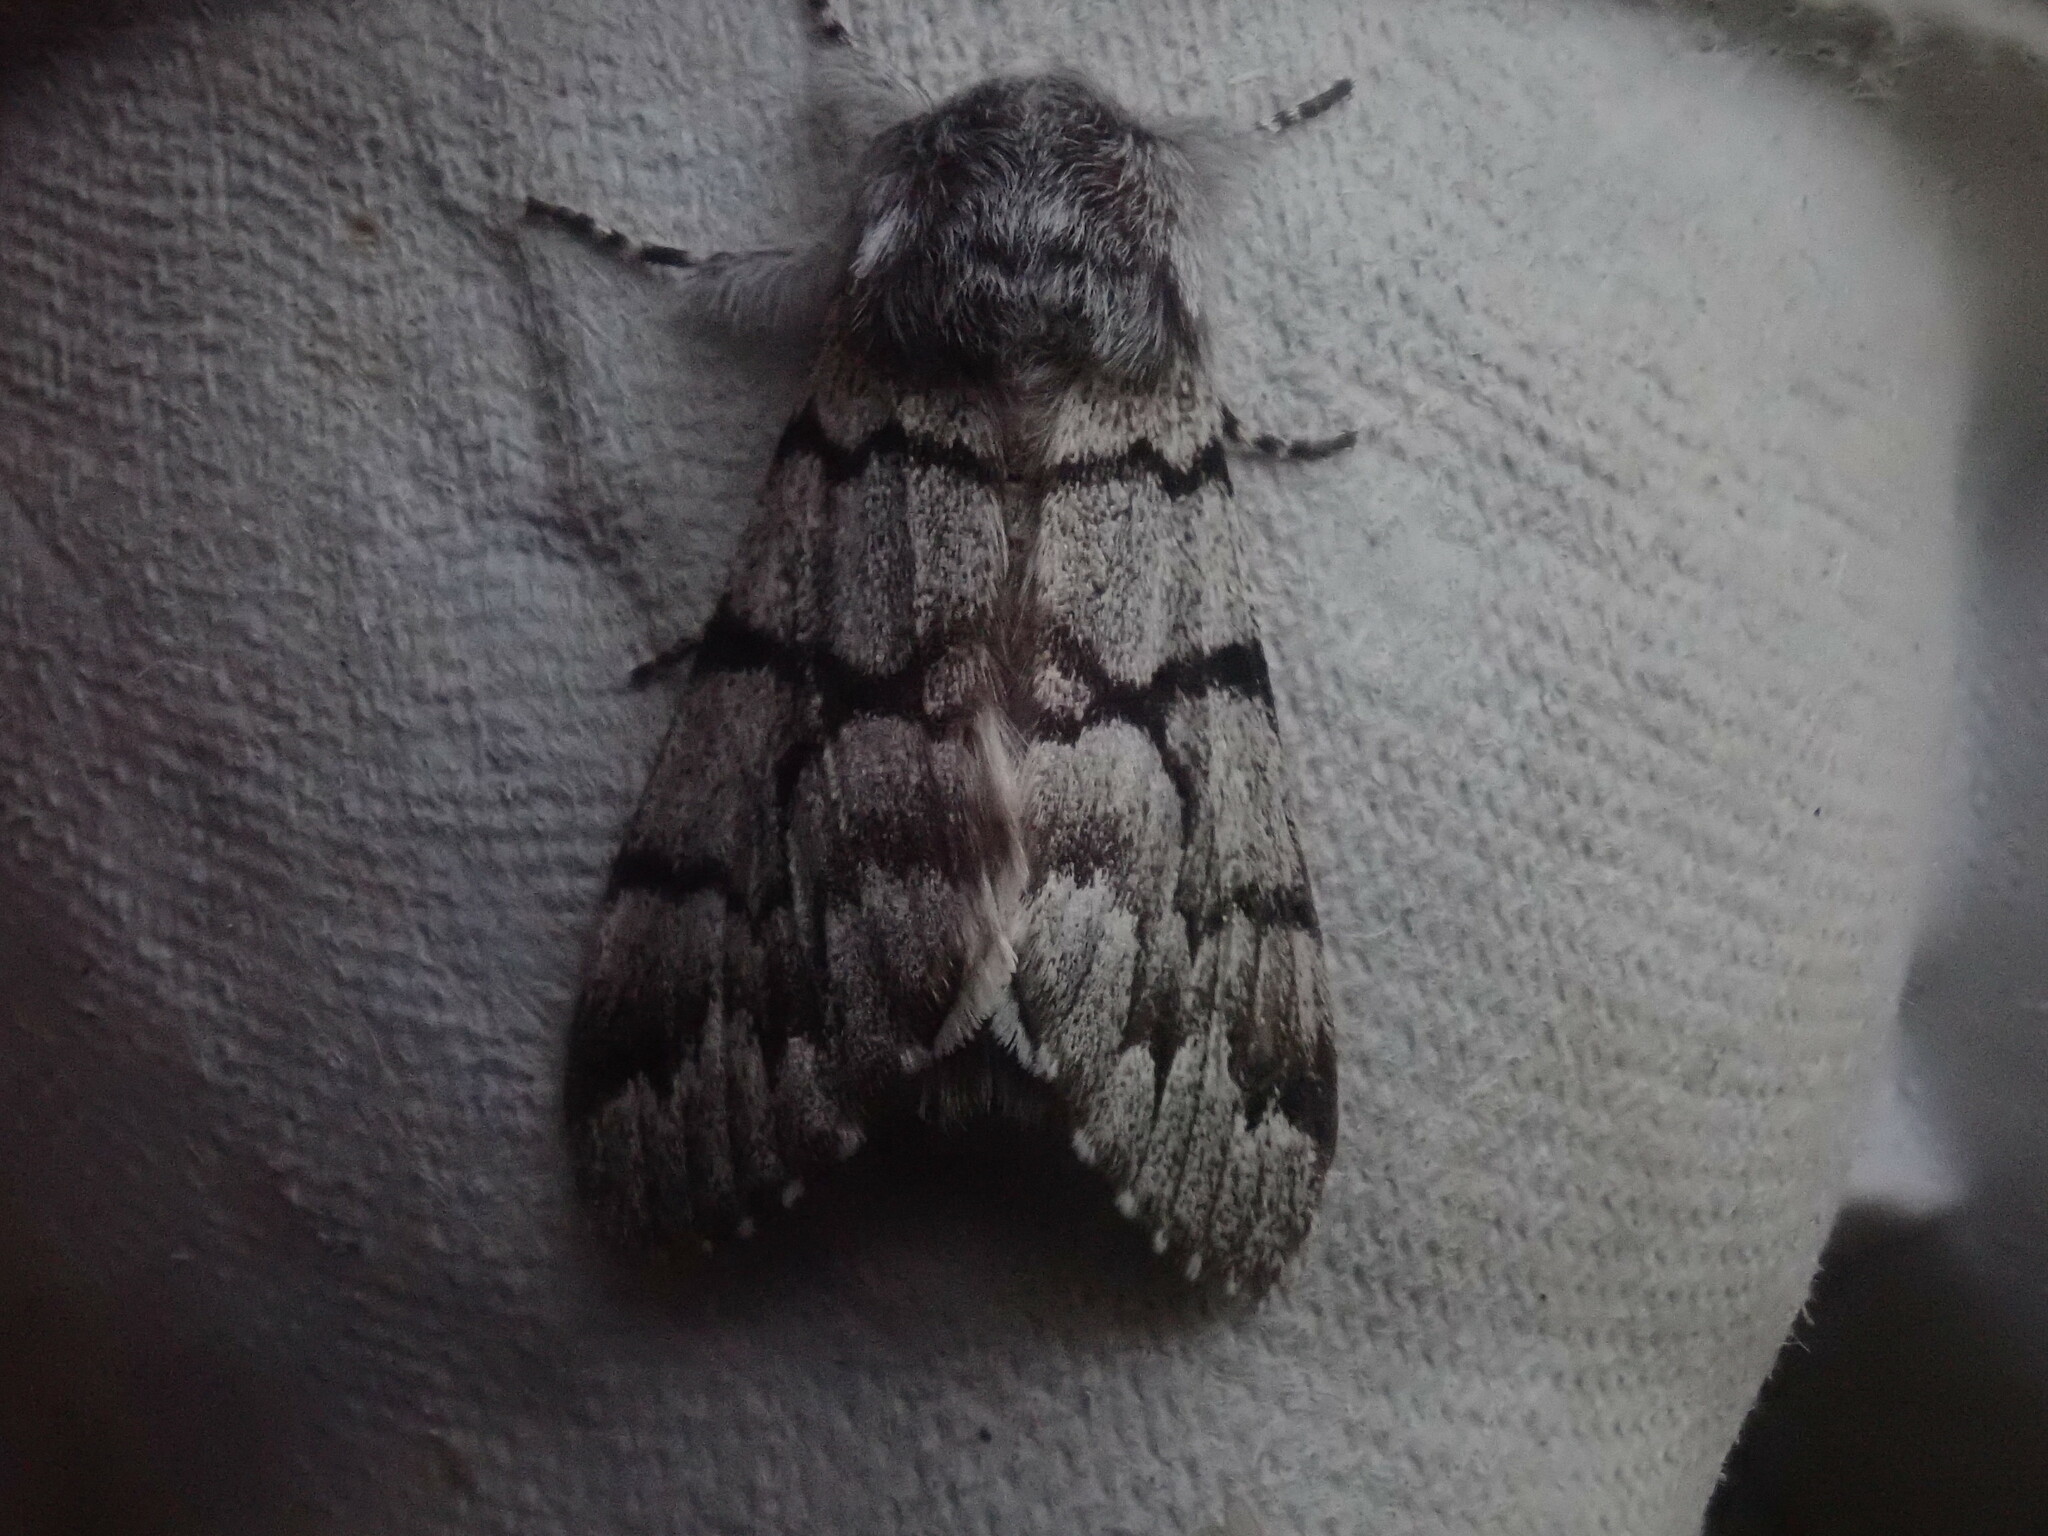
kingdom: Animalia
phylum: Arthropoda
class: Insecta
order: Lepidoptera
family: Noctuidae
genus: Panthea
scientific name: Panthea furcilla
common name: Eastern panthea moth
